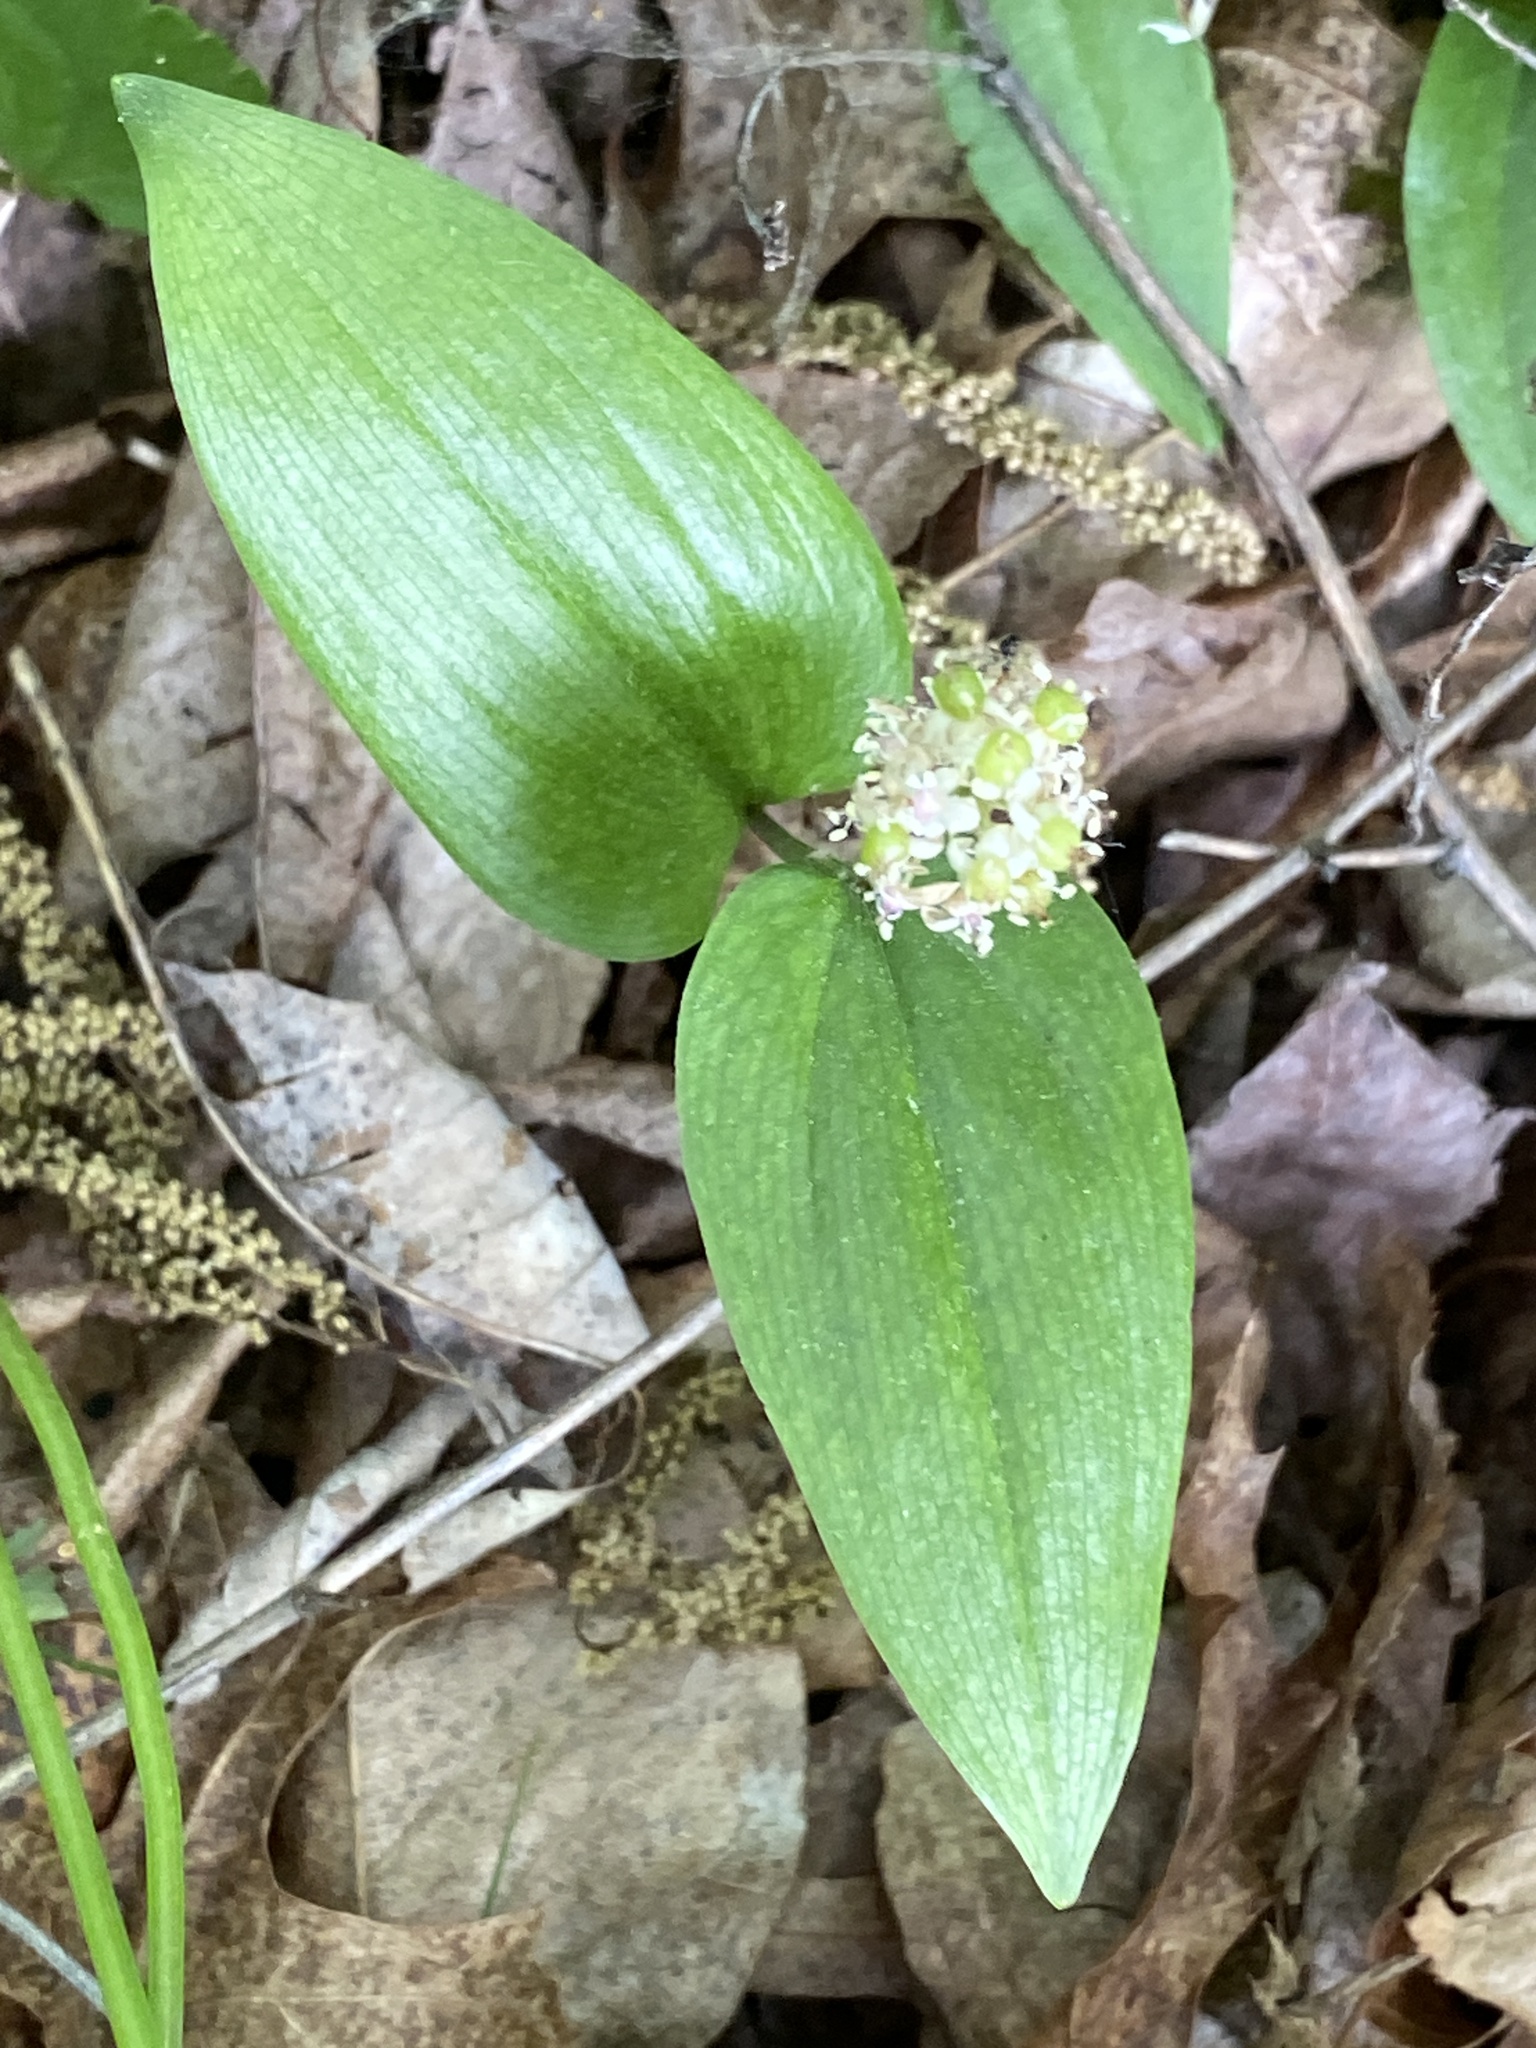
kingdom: Plantae
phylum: Tracheophyta
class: Liliopsida
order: Asparagales
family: Asparagaceae
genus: Maianthemum
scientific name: Maianthemum canadense
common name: False lily-of-the-valley
